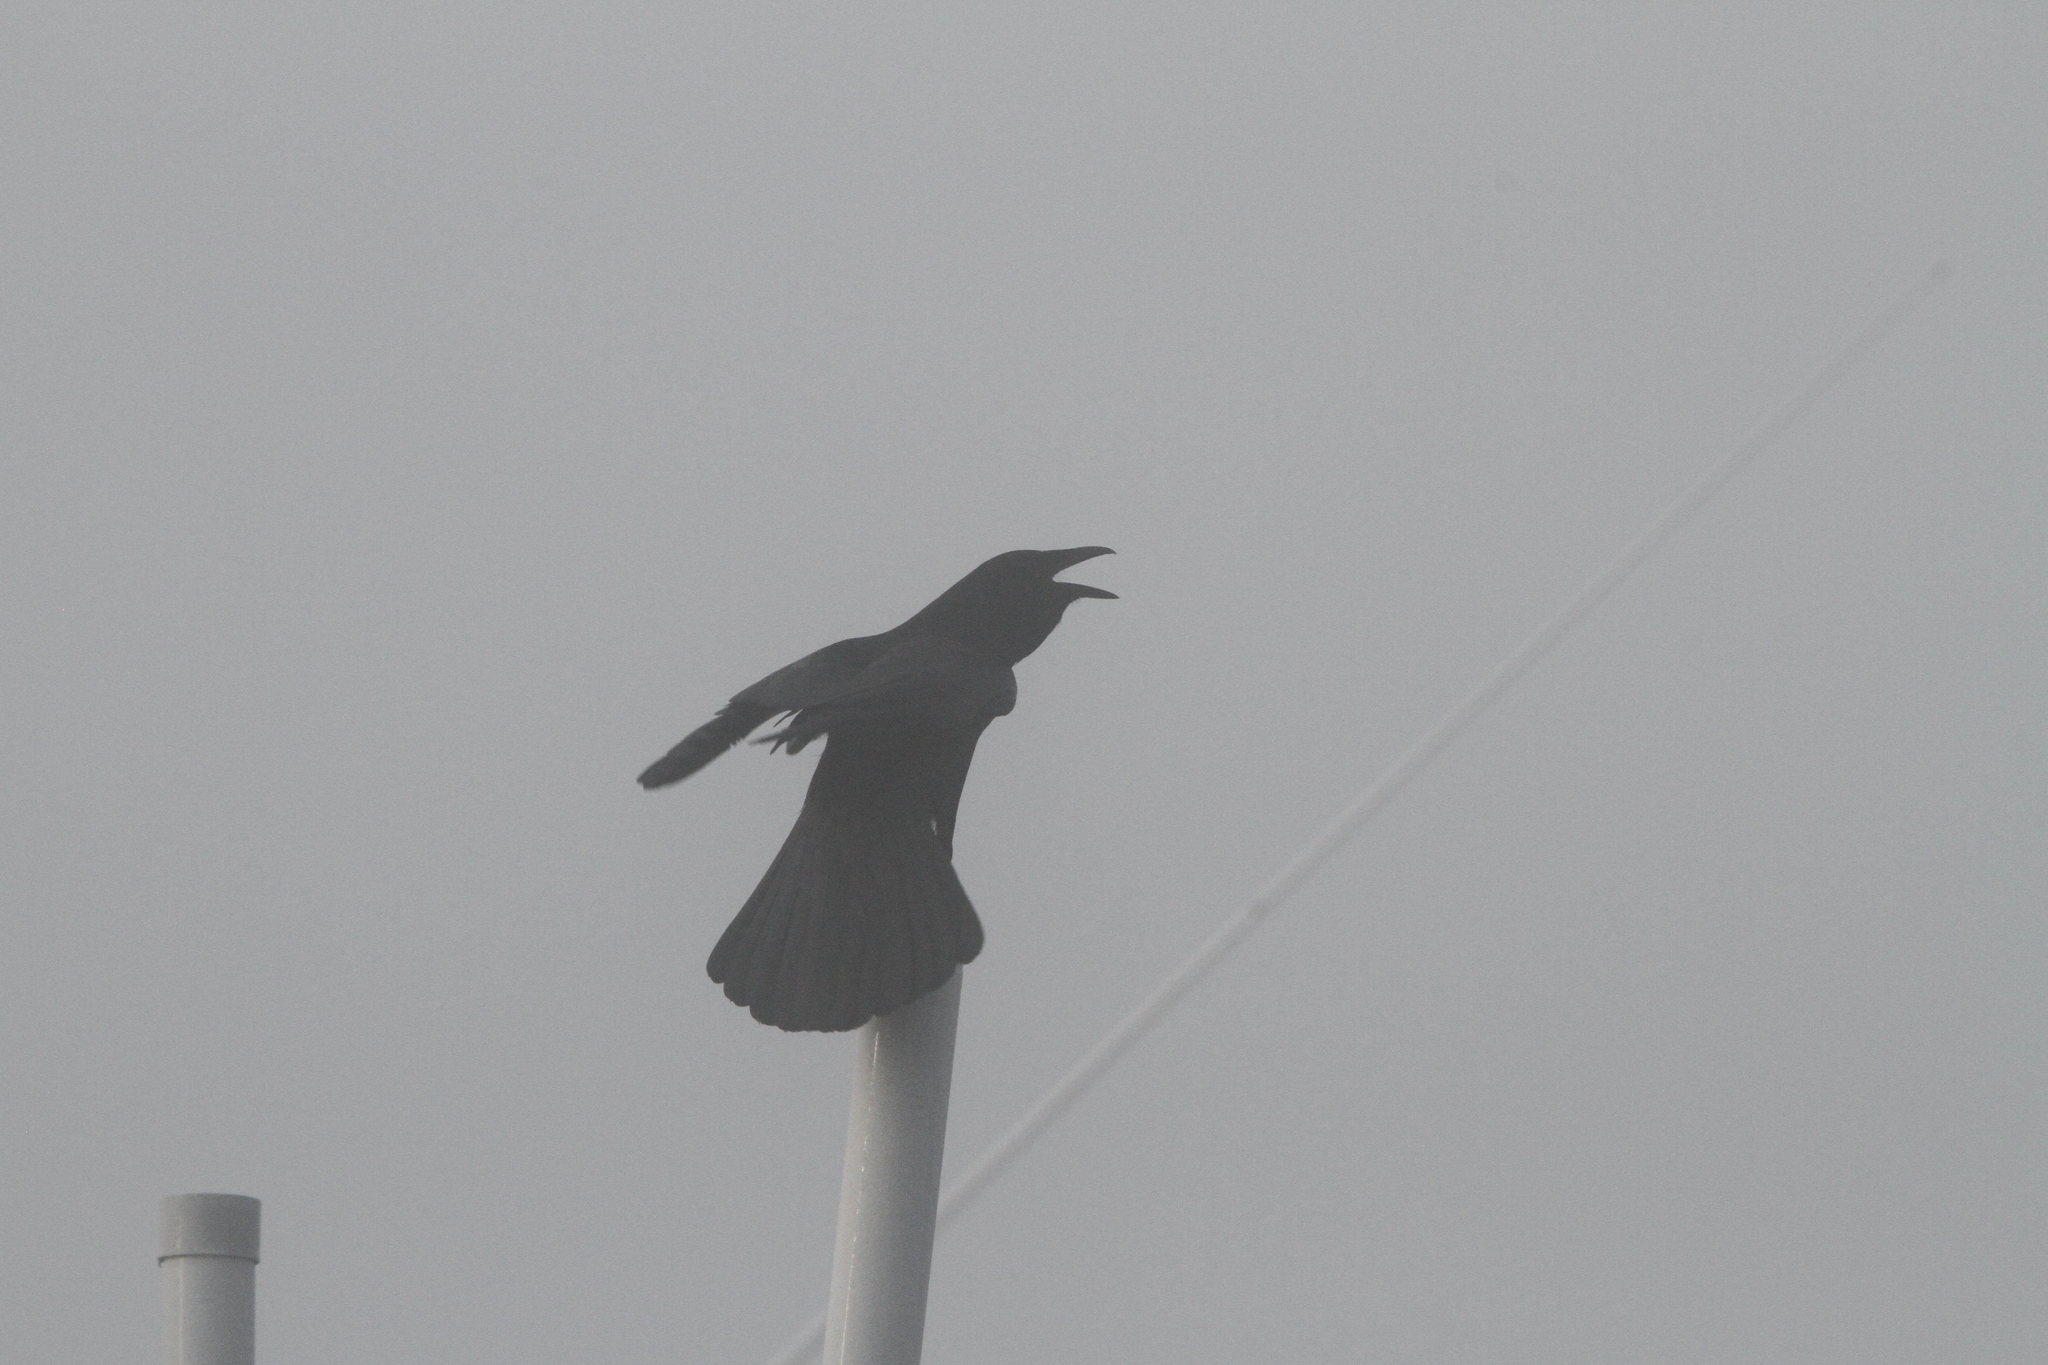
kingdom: Animalia
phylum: Chordata
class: Aves
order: Passeriformes
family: Corvidae
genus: Corvus
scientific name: Corvus ossifragus
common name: Fish crow
